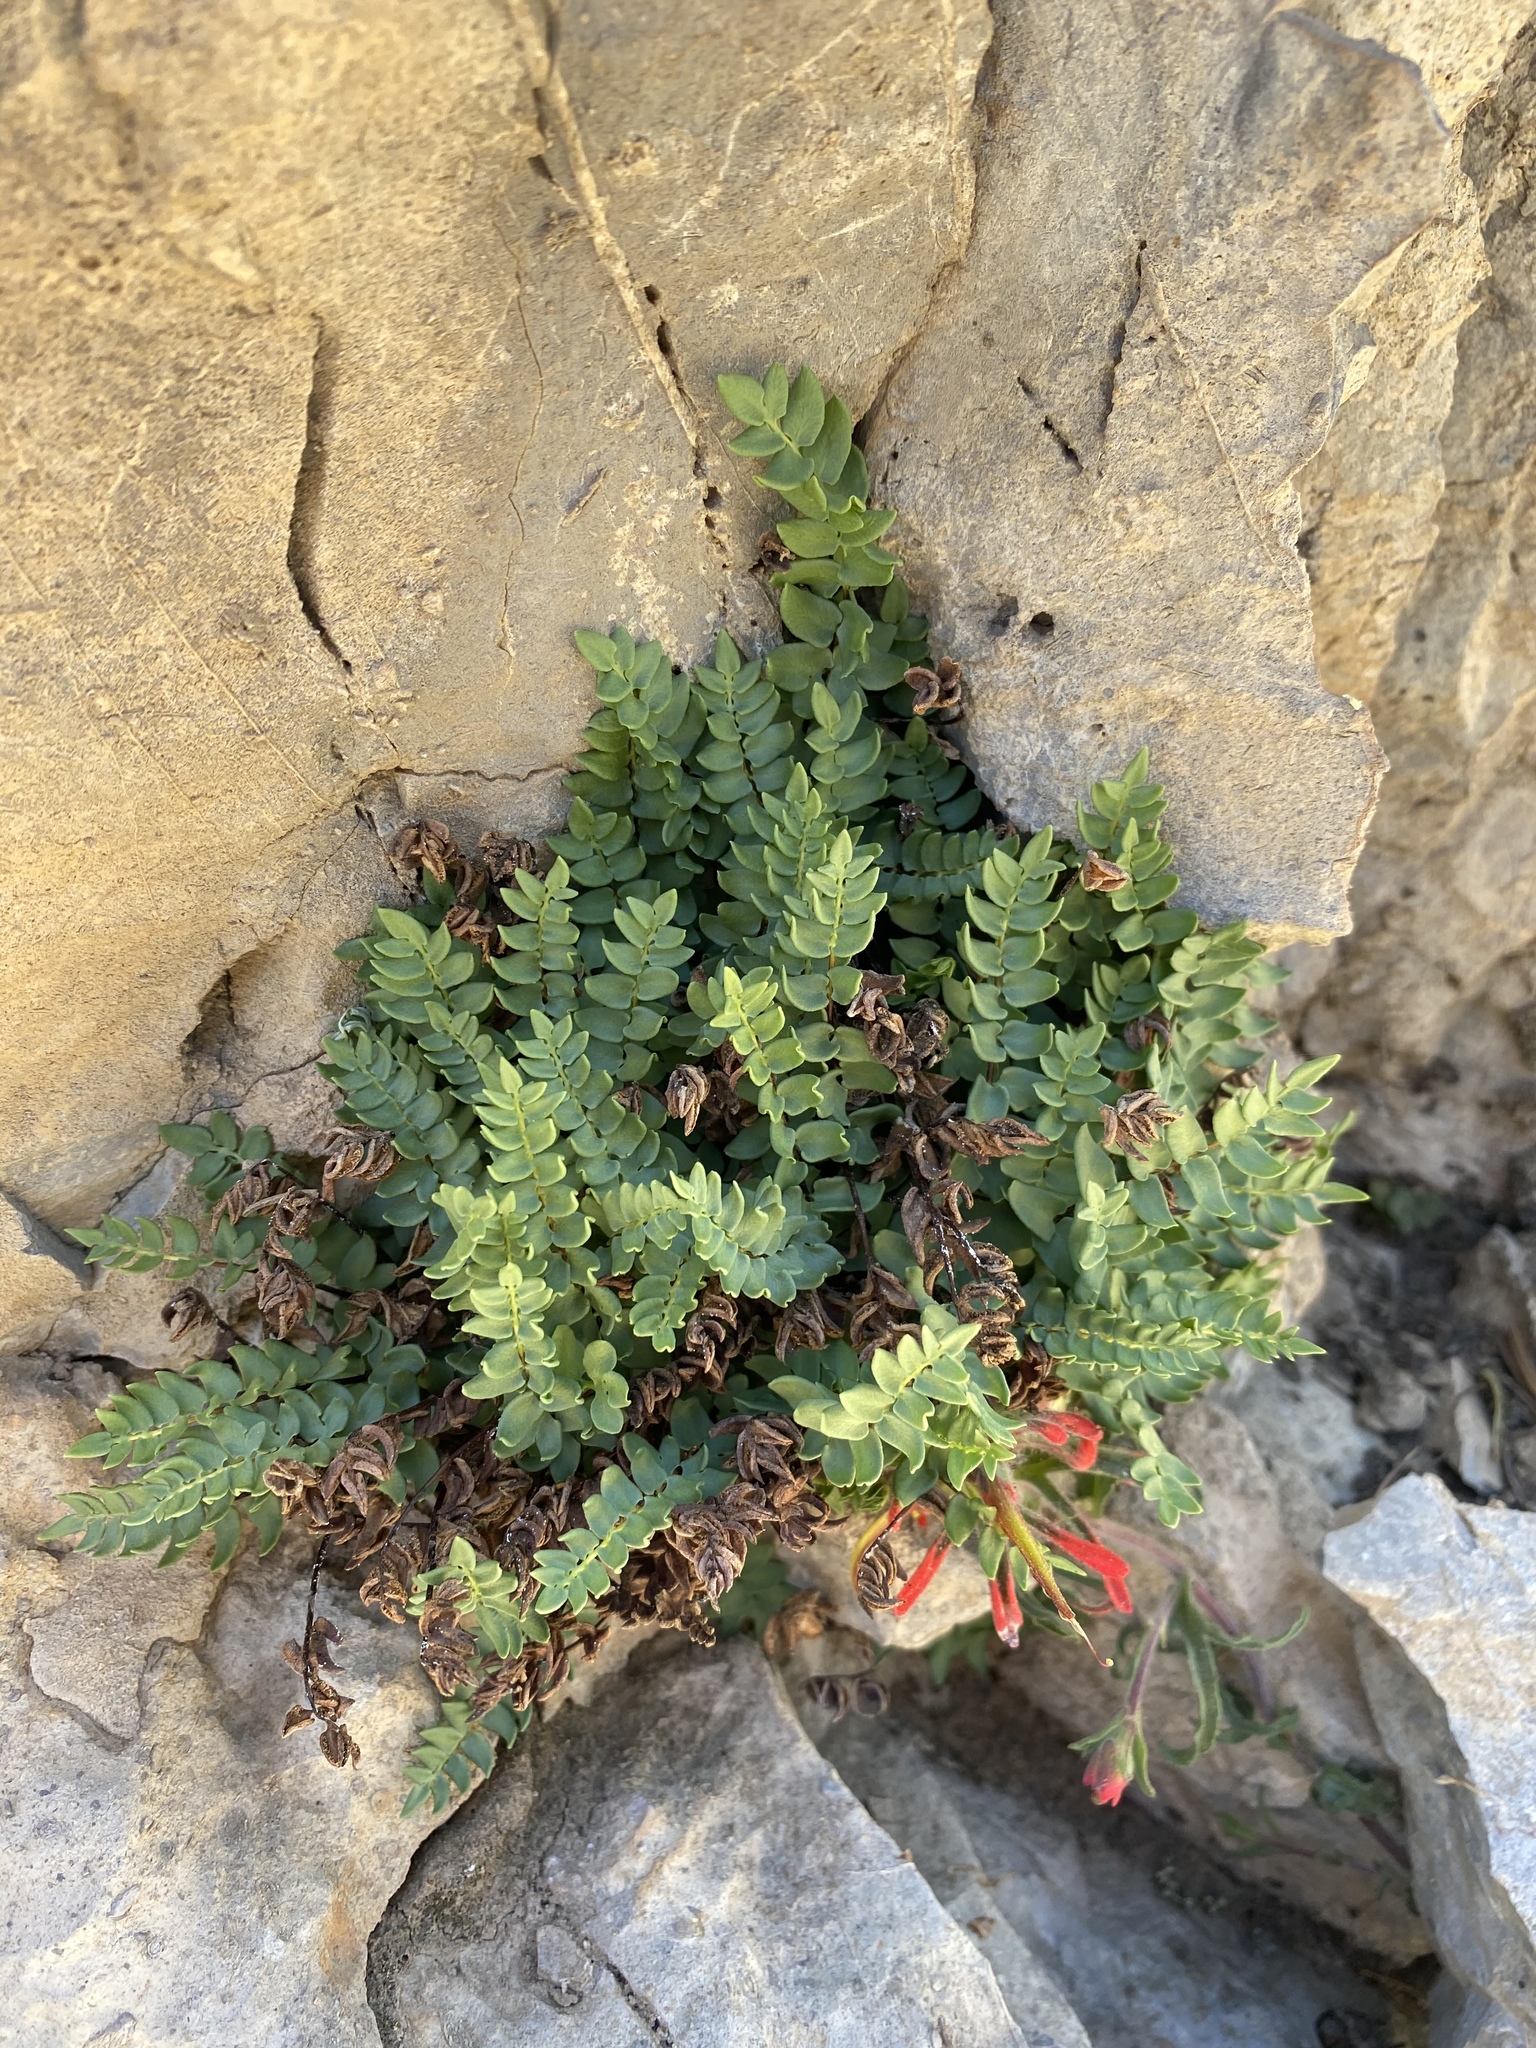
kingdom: Plantae
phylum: Tracheophyta
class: Polypodiopsida
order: Polypodiales
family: Pteridaceae
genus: Pellaea
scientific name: Pellaea breweri
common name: Brewer's cliffbrake
